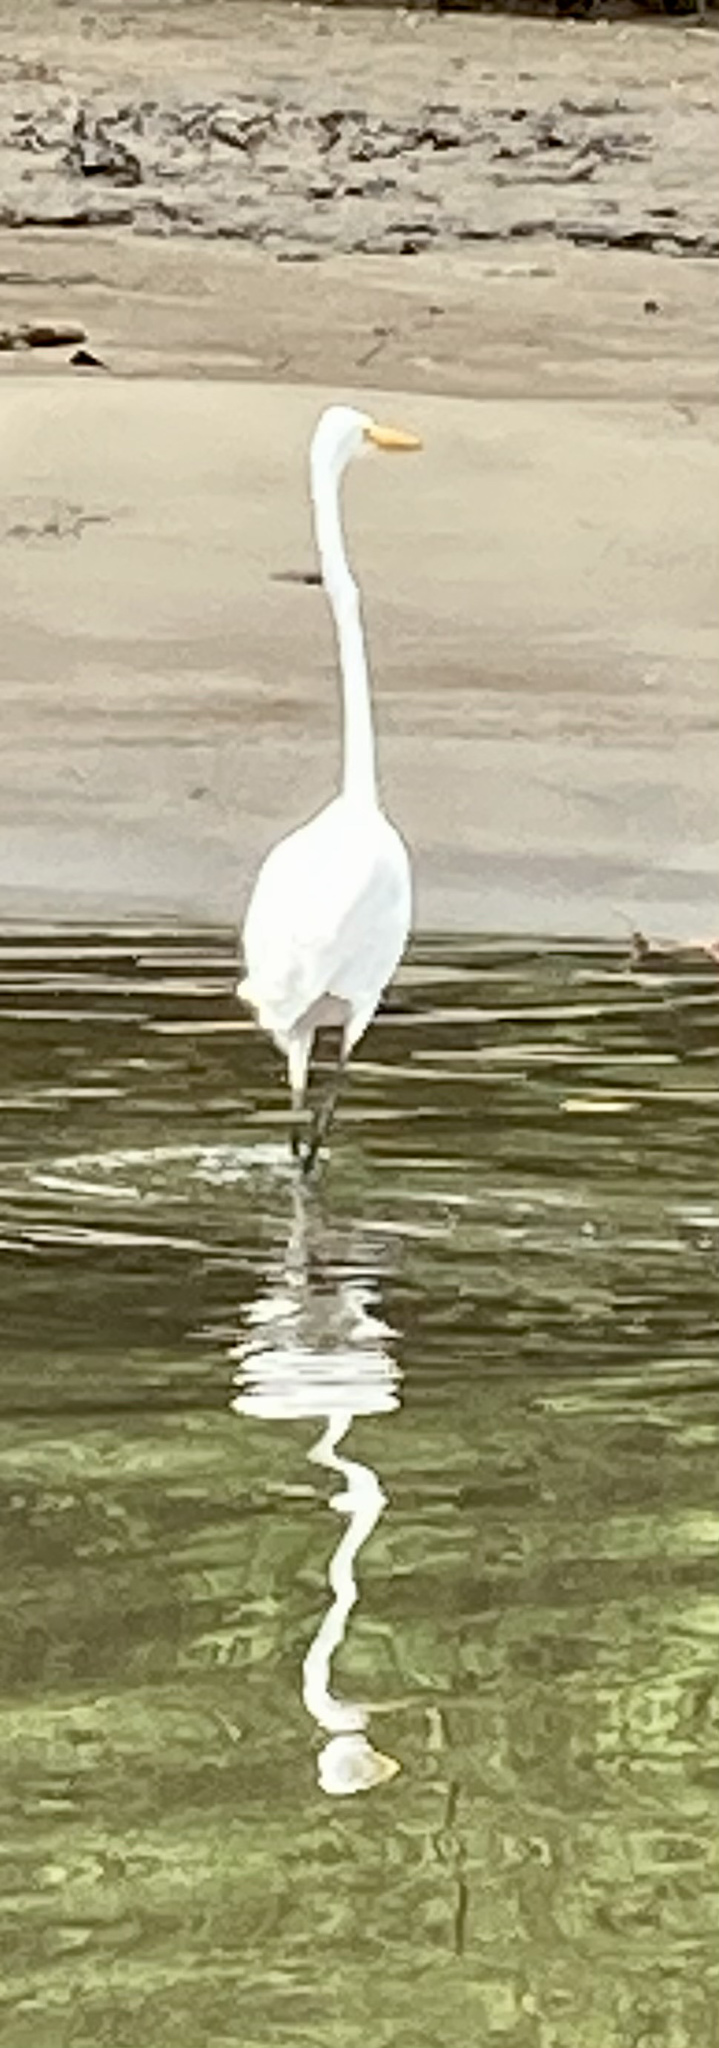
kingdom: Animalia
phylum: Chordata
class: Aves
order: Pelecaniformes
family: Ardeidae
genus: Ardea
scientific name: Ardea alba
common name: Great egret
